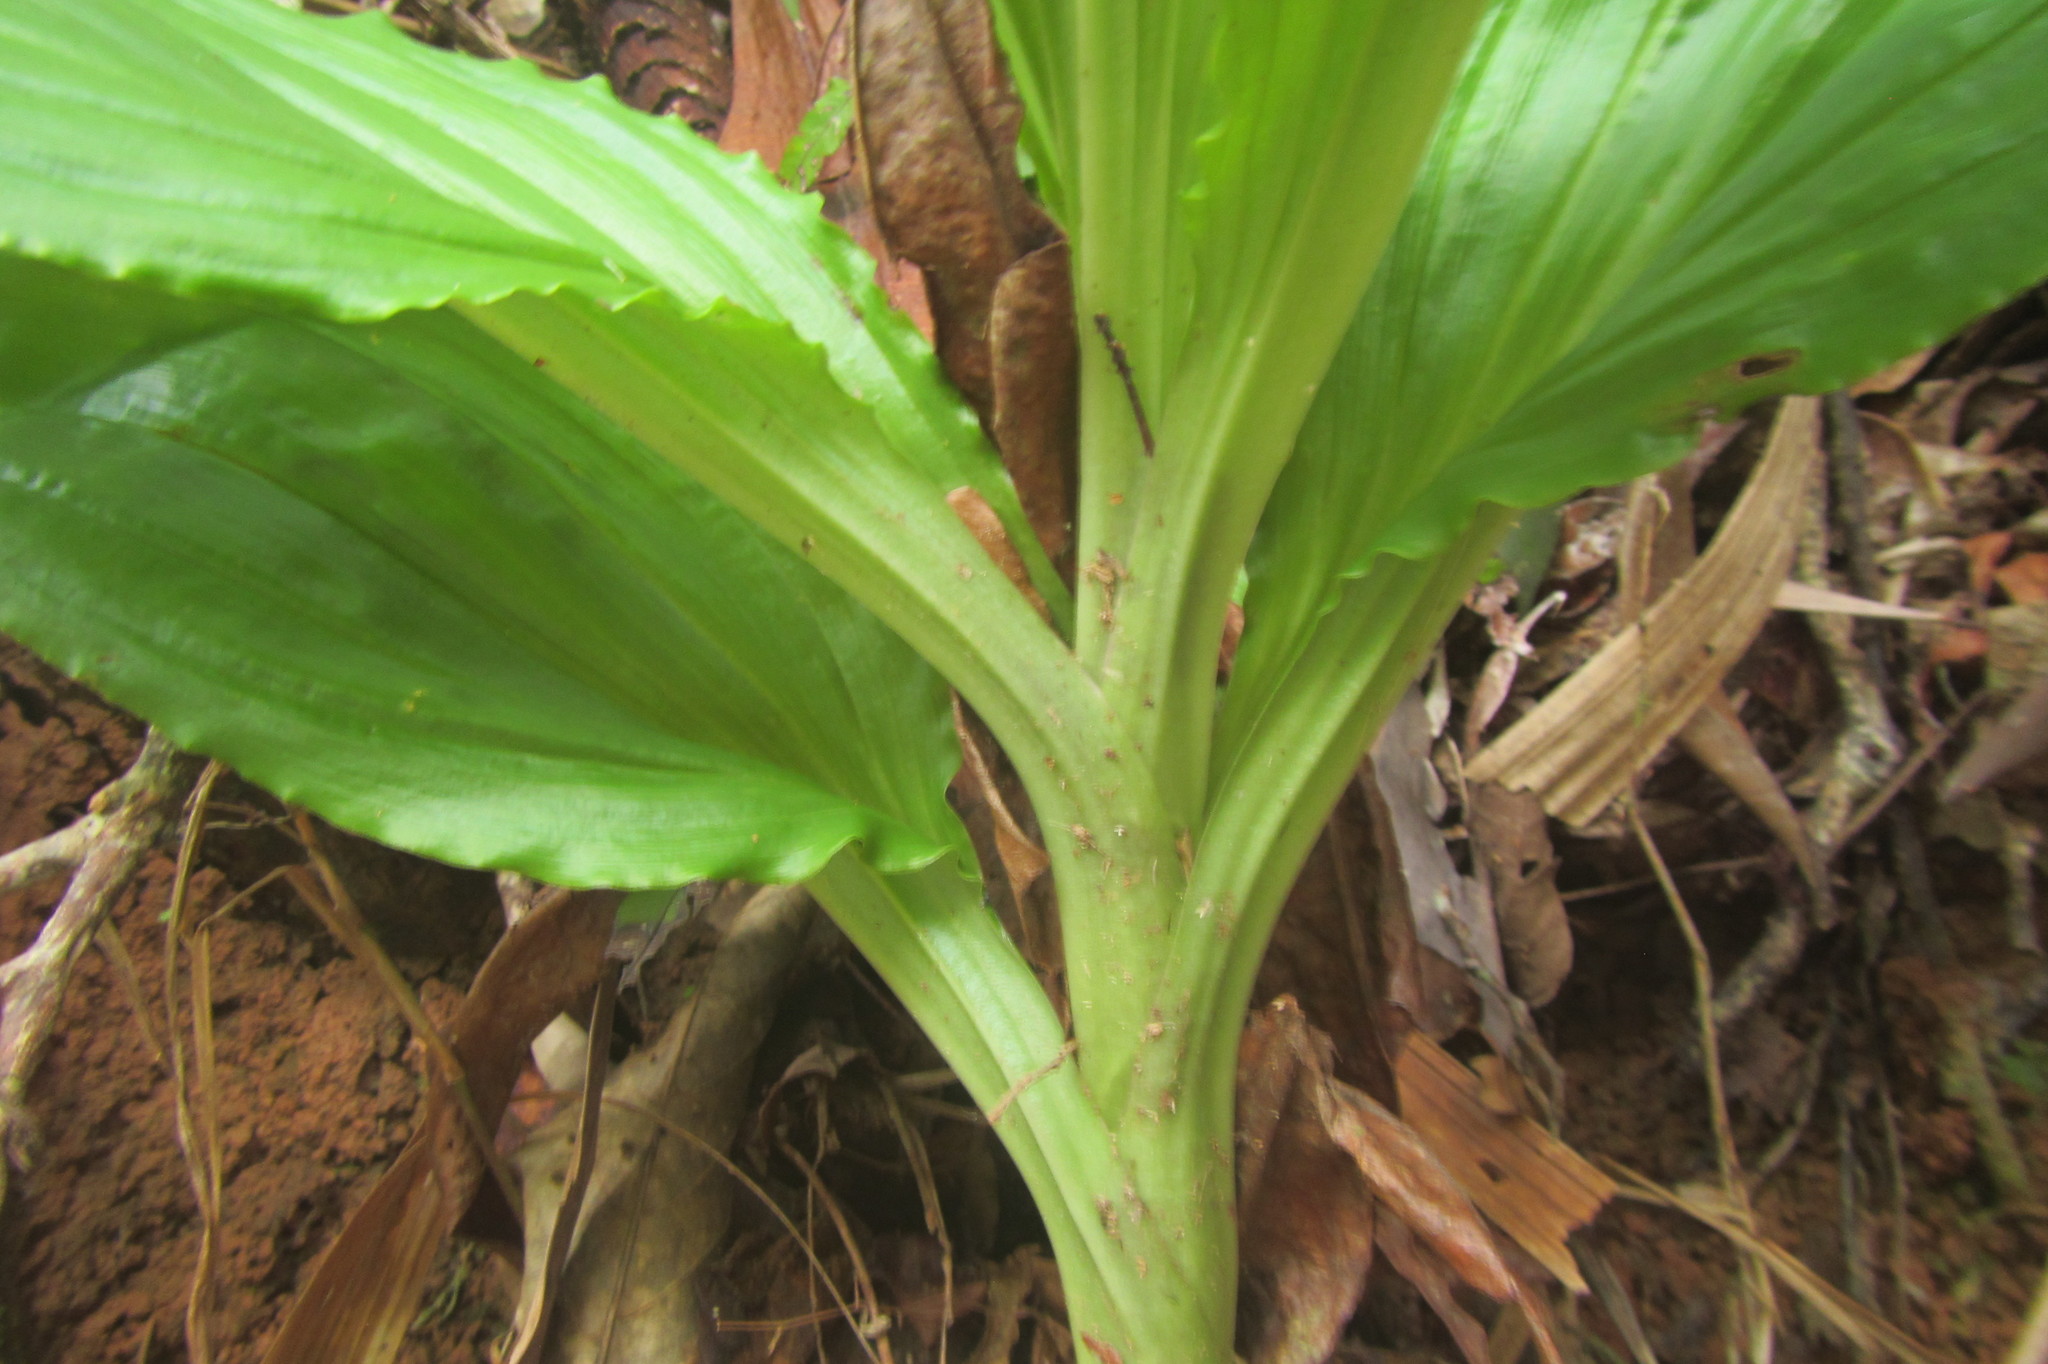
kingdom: Plantae
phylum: Tracheophyta
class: Liliopsida
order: Asparagales
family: Orchidaceae
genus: Dienia
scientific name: Dienia ophrydis
